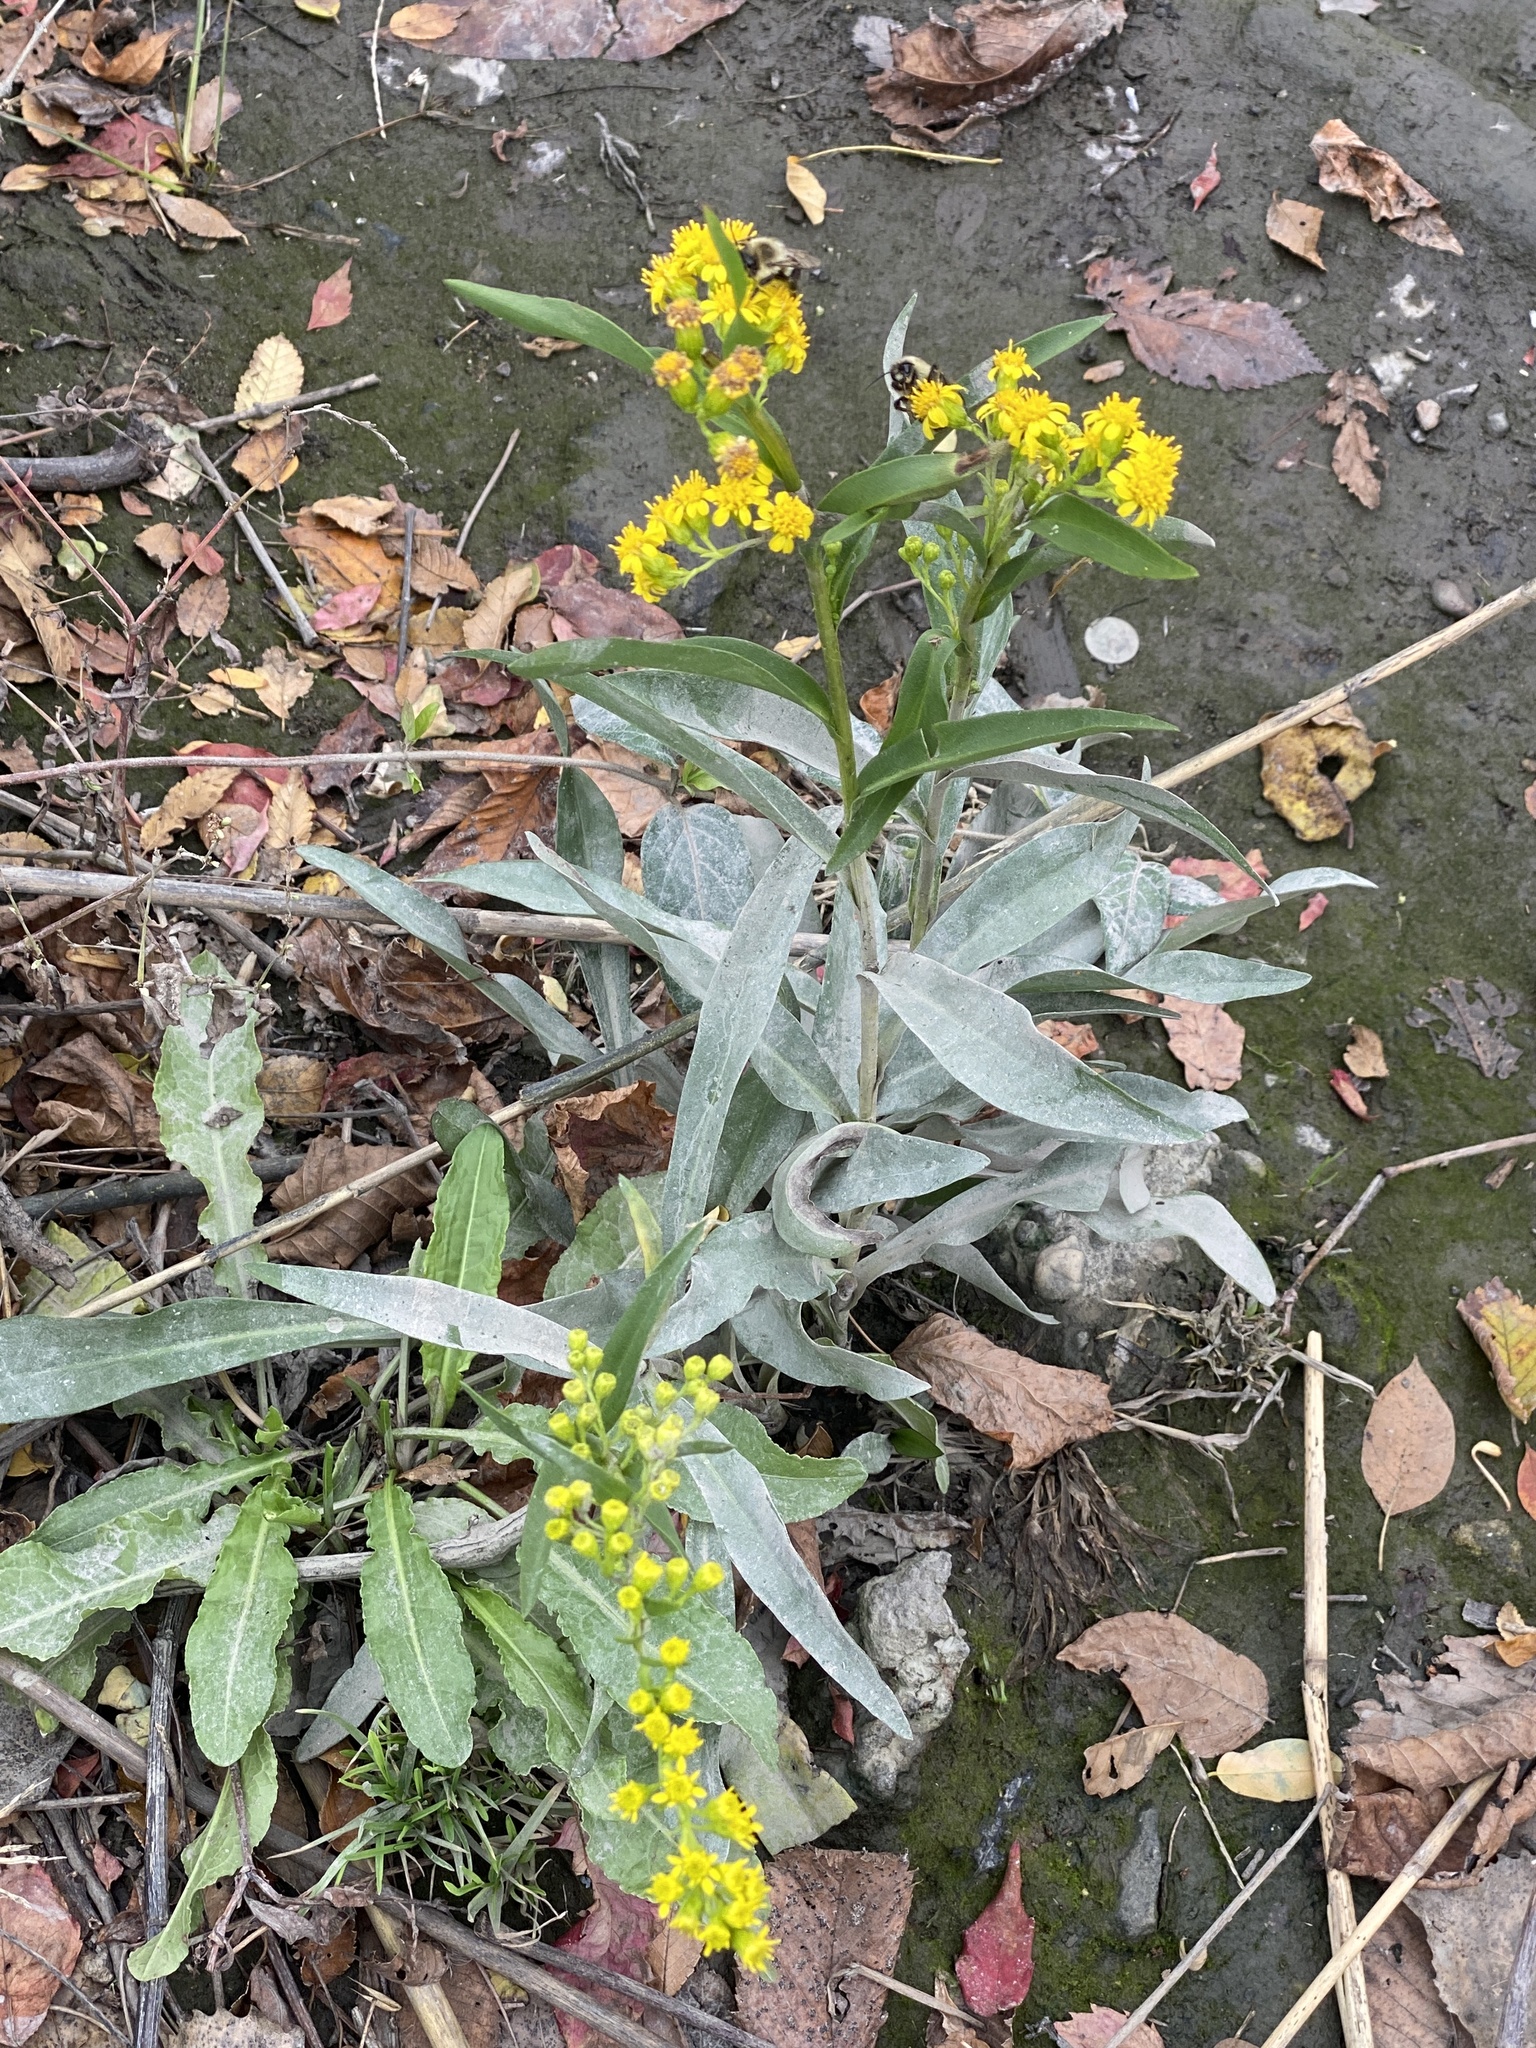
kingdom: Plantae
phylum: Tracheophyta
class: Magnoliopsida
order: Asterales
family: Asteraceae
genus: Solidago
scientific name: Solidago sempervirens
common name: Salt-marsh goldenrod
